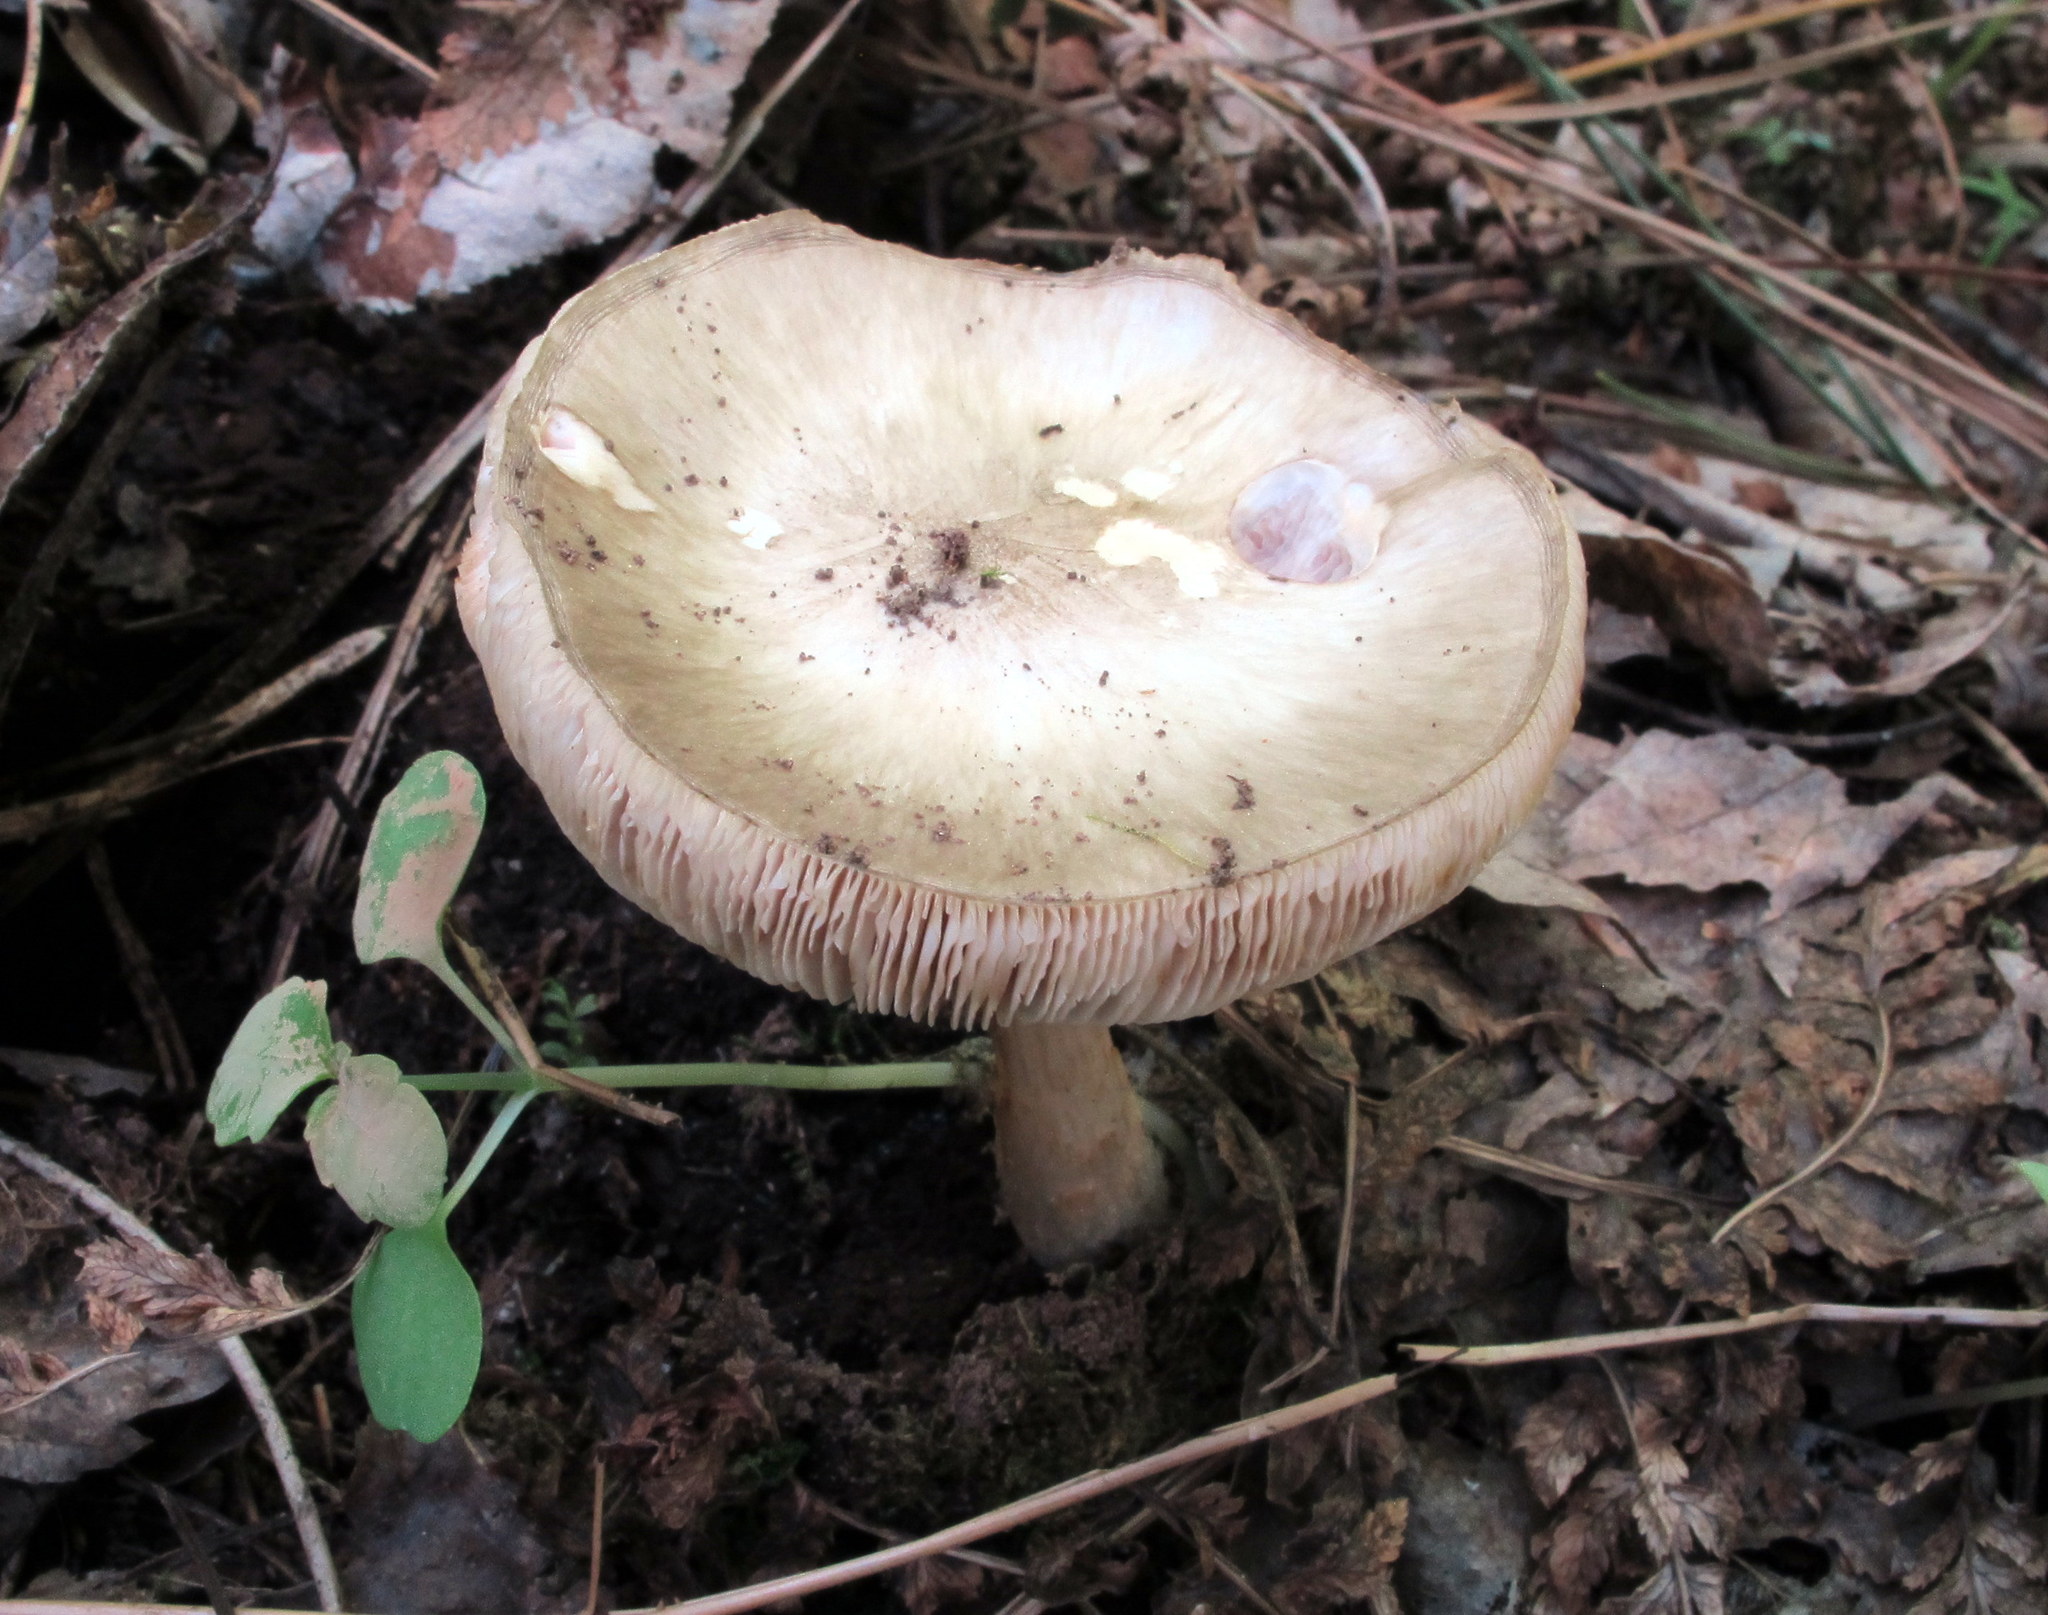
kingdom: Fungi
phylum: Basidiomycota
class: Agaricomycetes
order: Agaricales
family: Pluteaceae
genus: Pluteus
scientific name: Pluteus cervinus
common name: Deer shield
